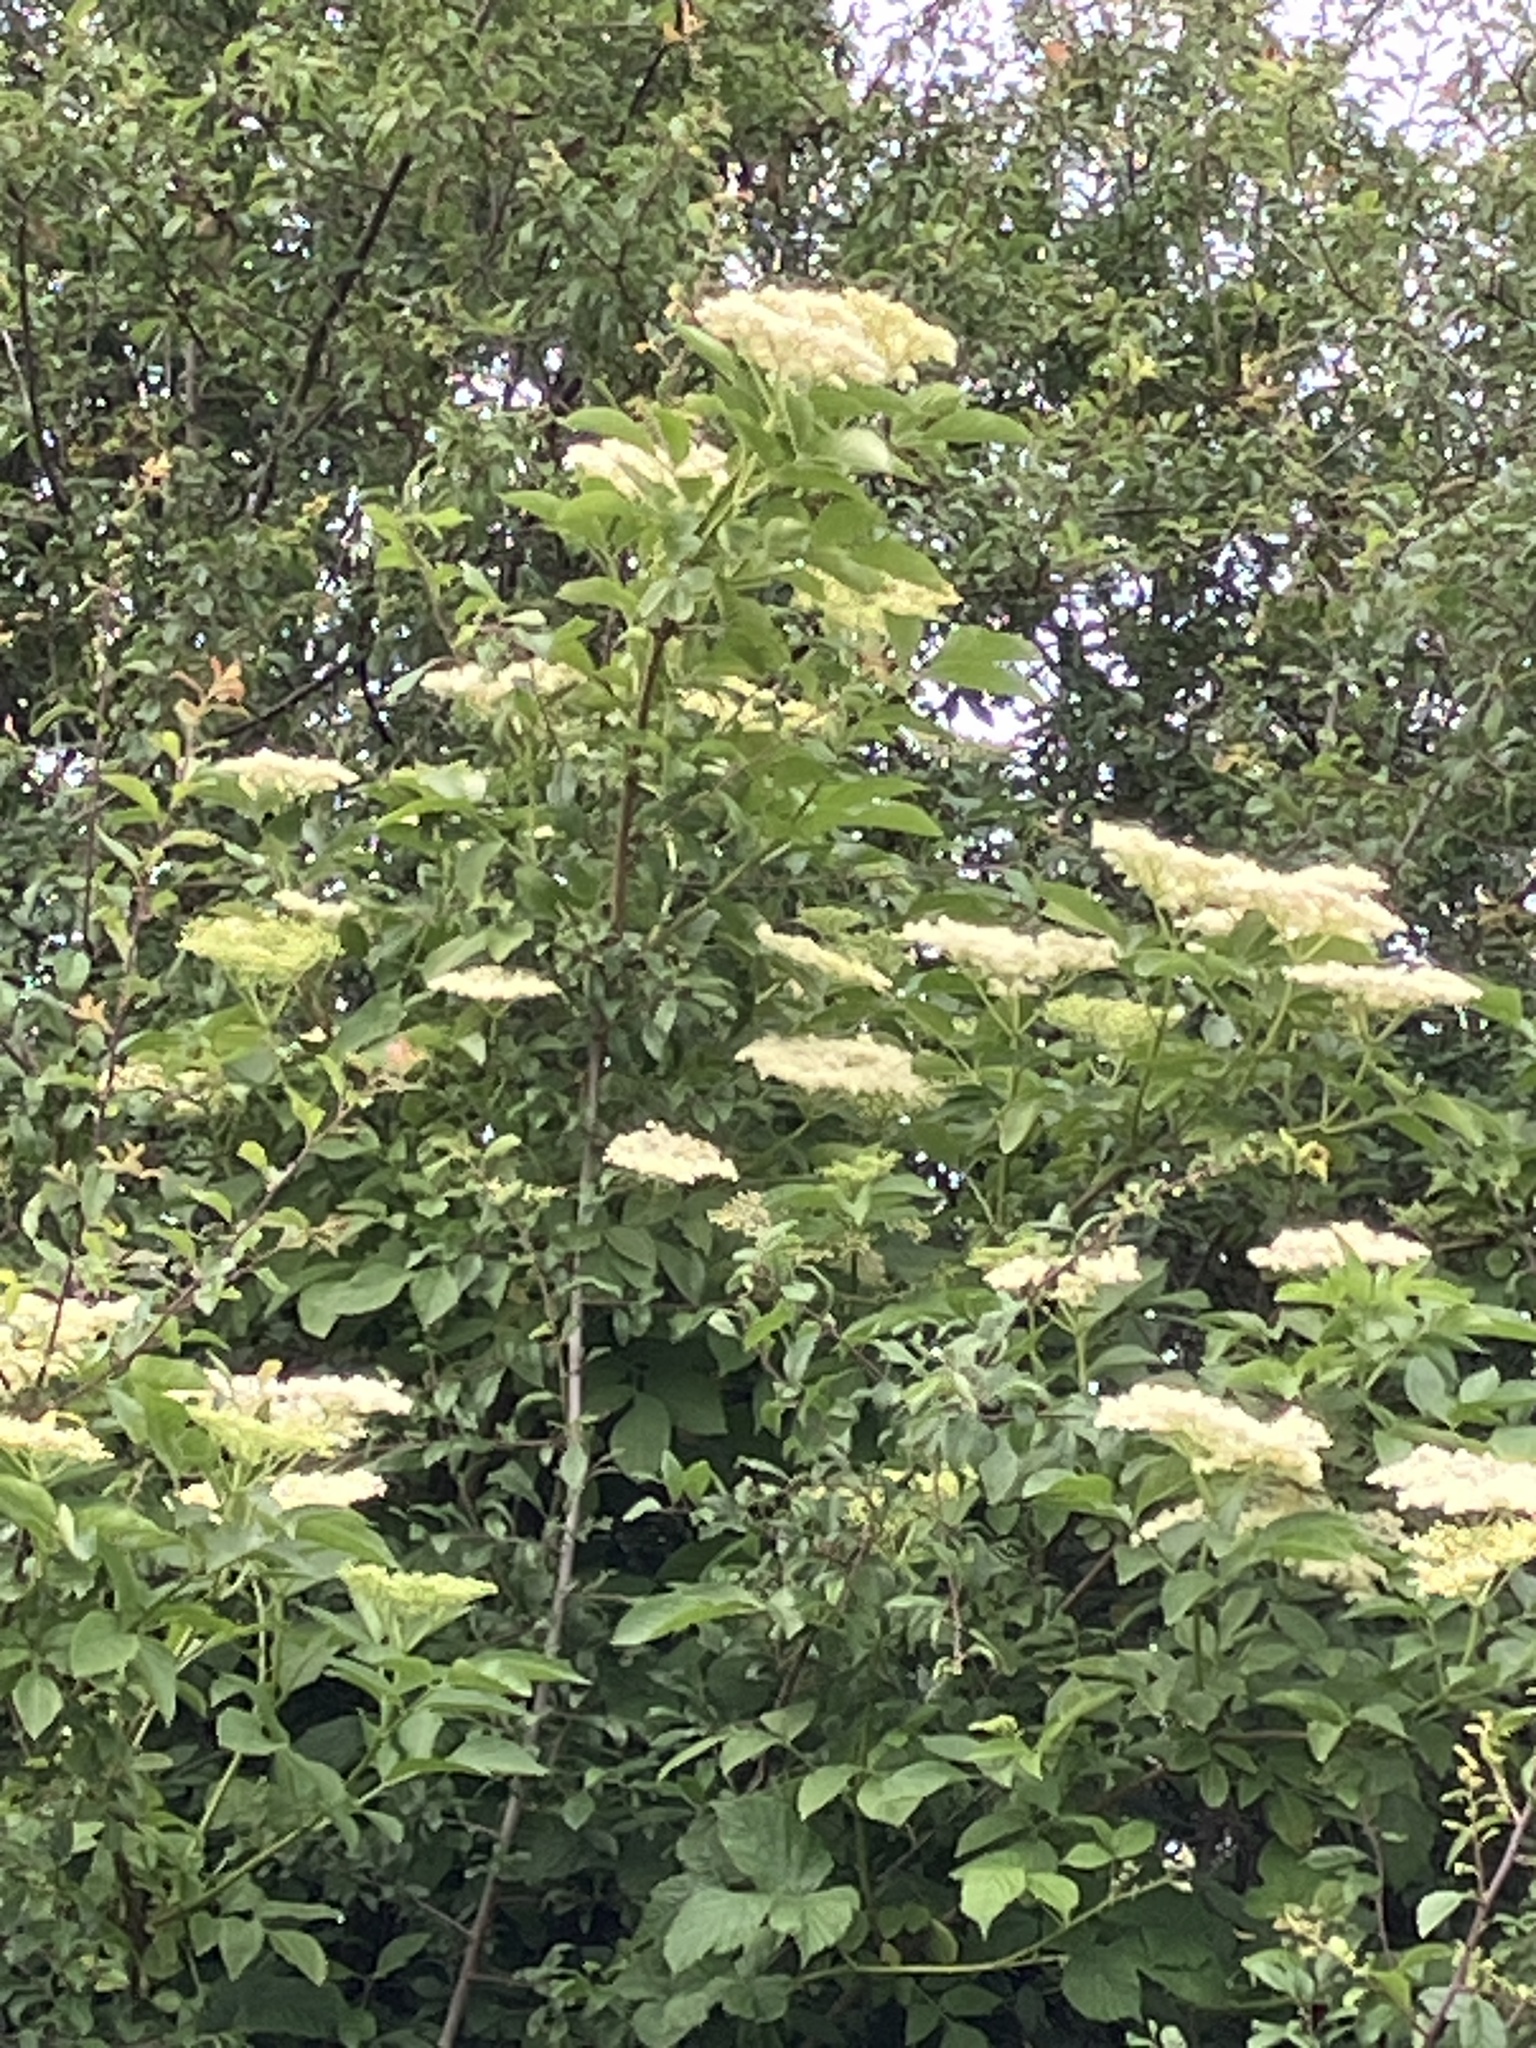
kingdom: Plantae
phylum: Tracheophyta
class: Magnoliopsida
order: Dipsacales
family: Viburnaceae
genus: Sambucus
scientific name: Sambucus nigra
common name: Elder
